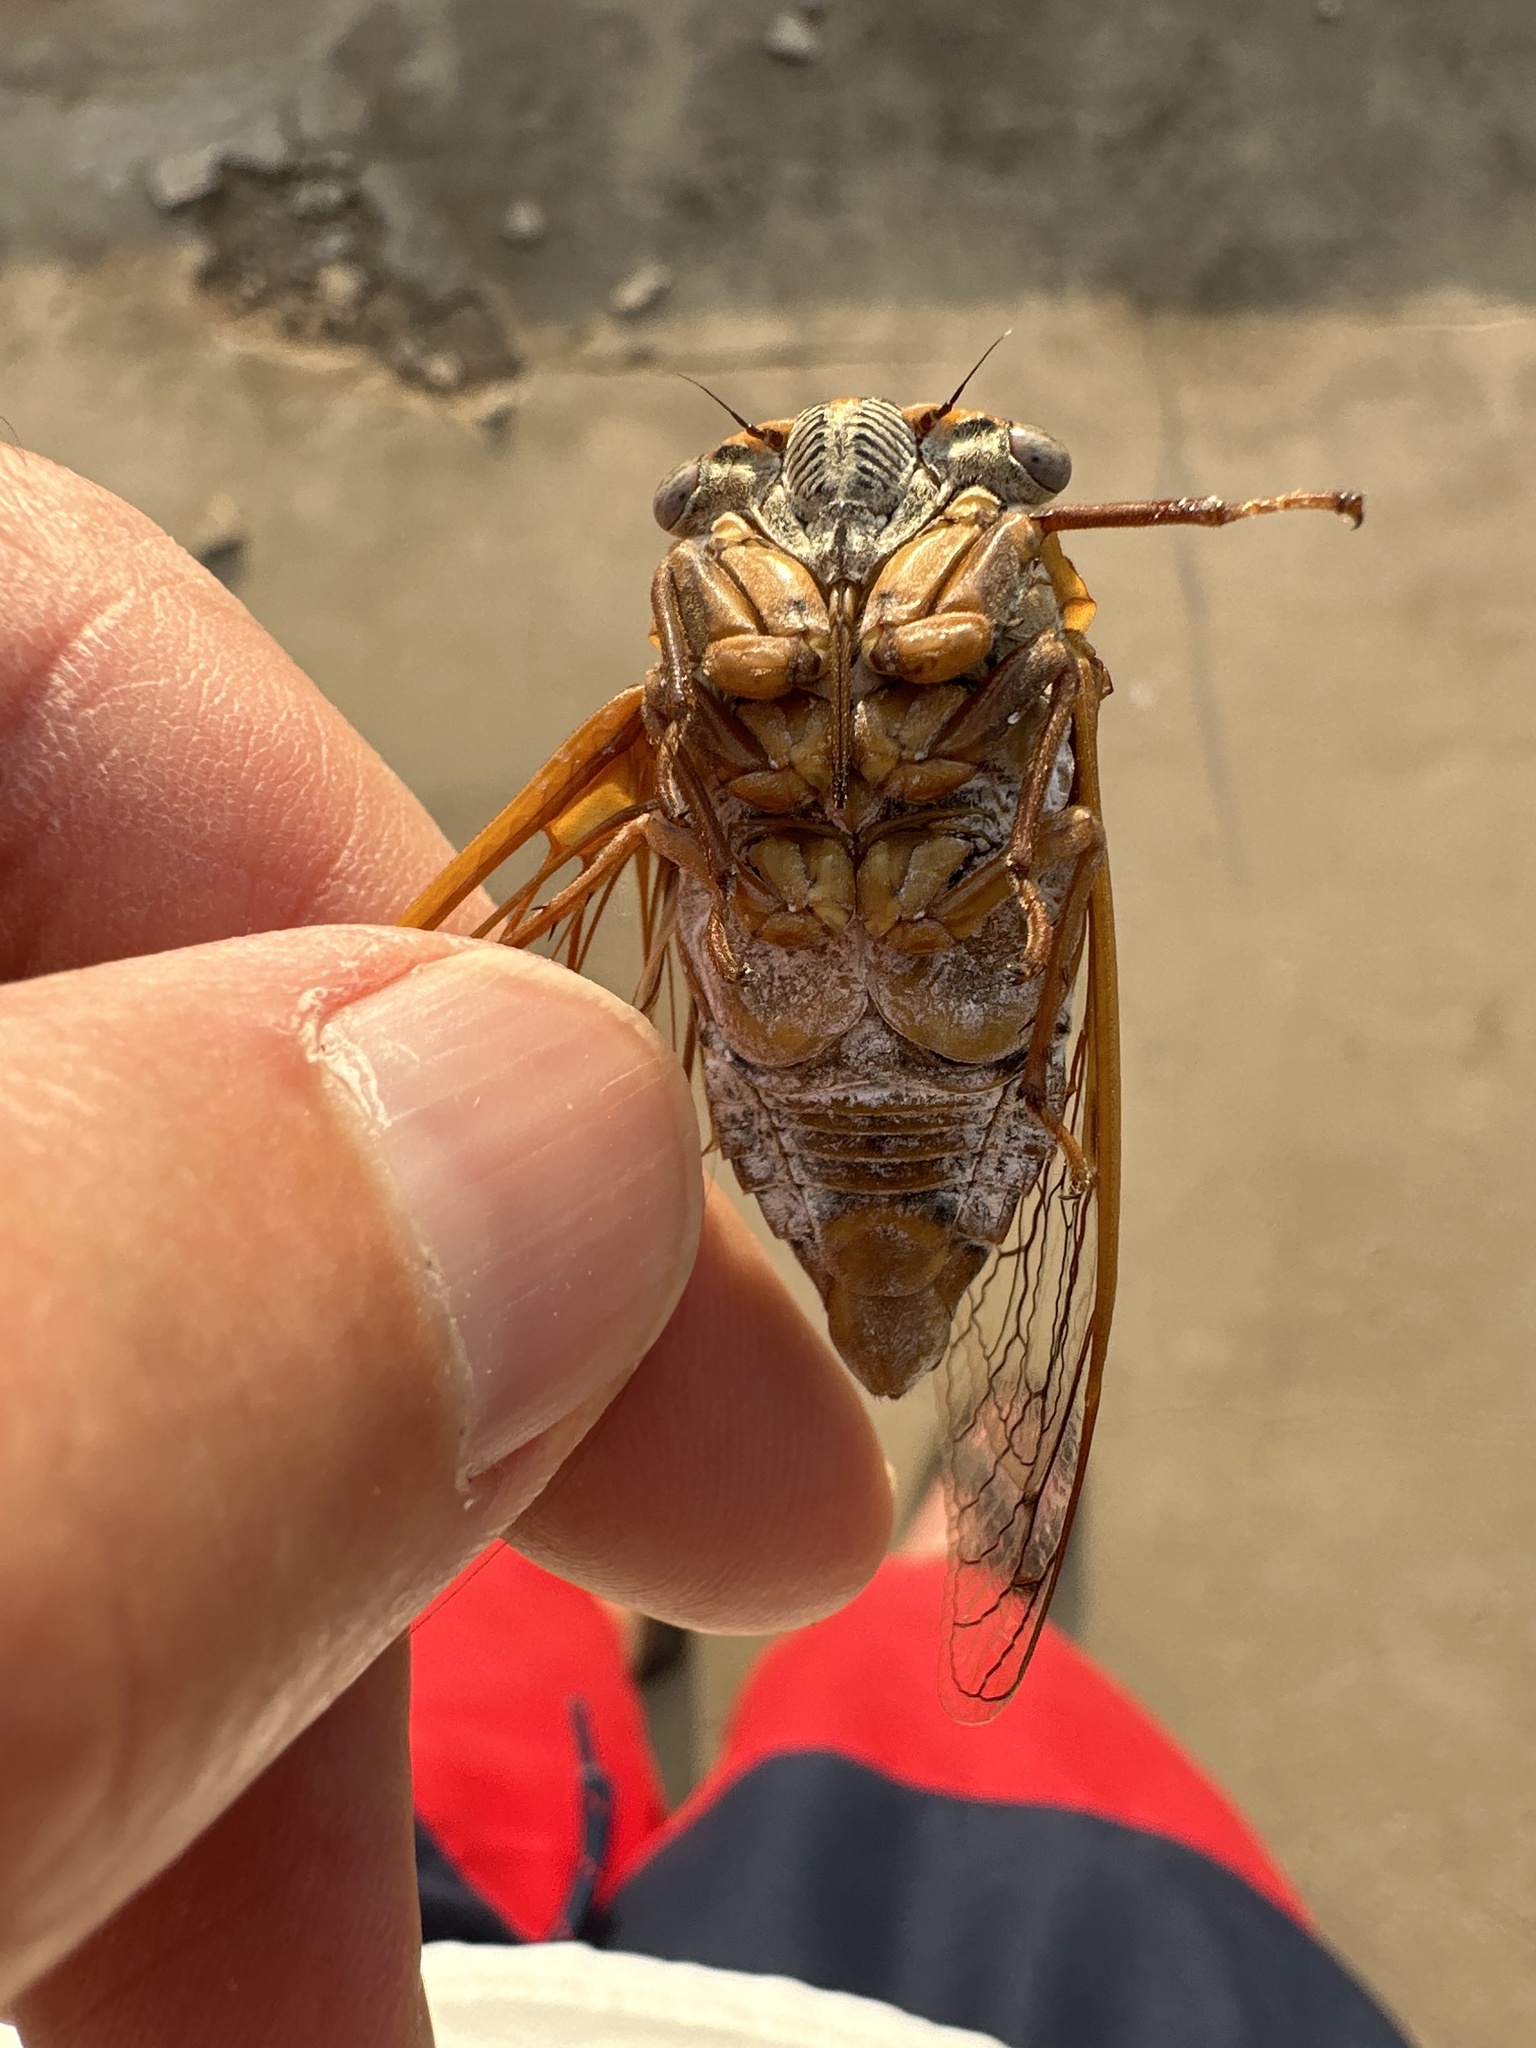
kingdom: Animalia
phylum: Arthropoda
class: Insecta
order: Hemiptera
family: Cicadidae
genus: Megatibicen
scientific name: Megatibicen dealbatus
